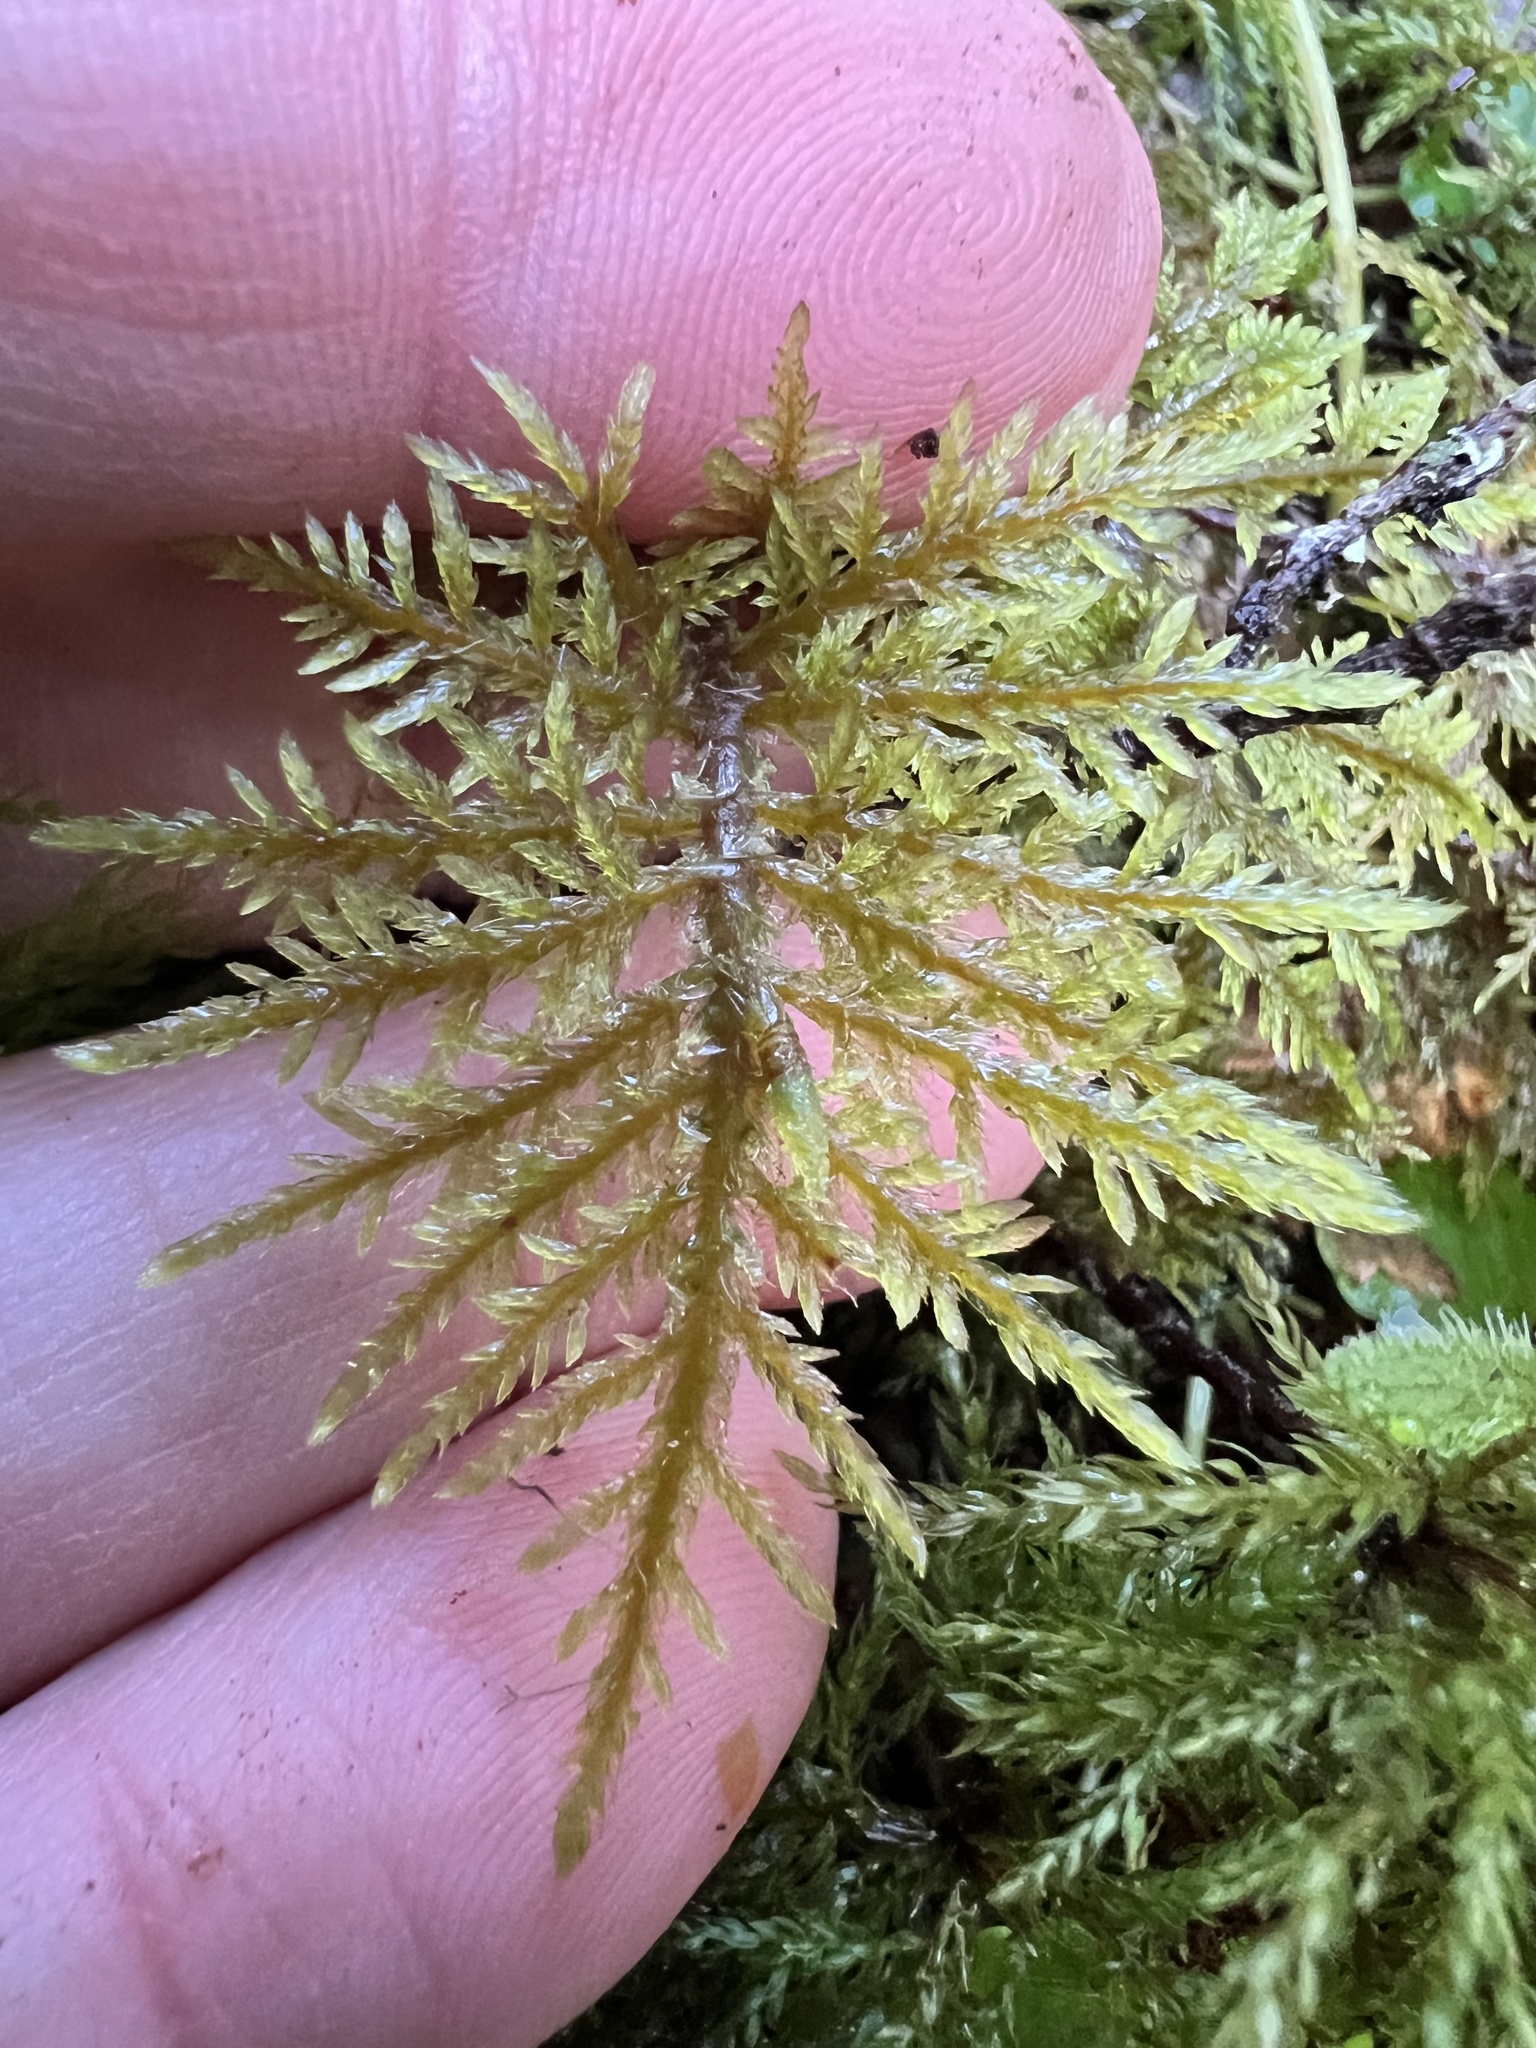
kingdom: Plantae
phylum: Bryophyta
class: Bryopsida
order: Hypnales
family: Hylocomiaceae
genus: Hylocomium
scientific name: Hylocomium splendens
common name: Stairstep moss
